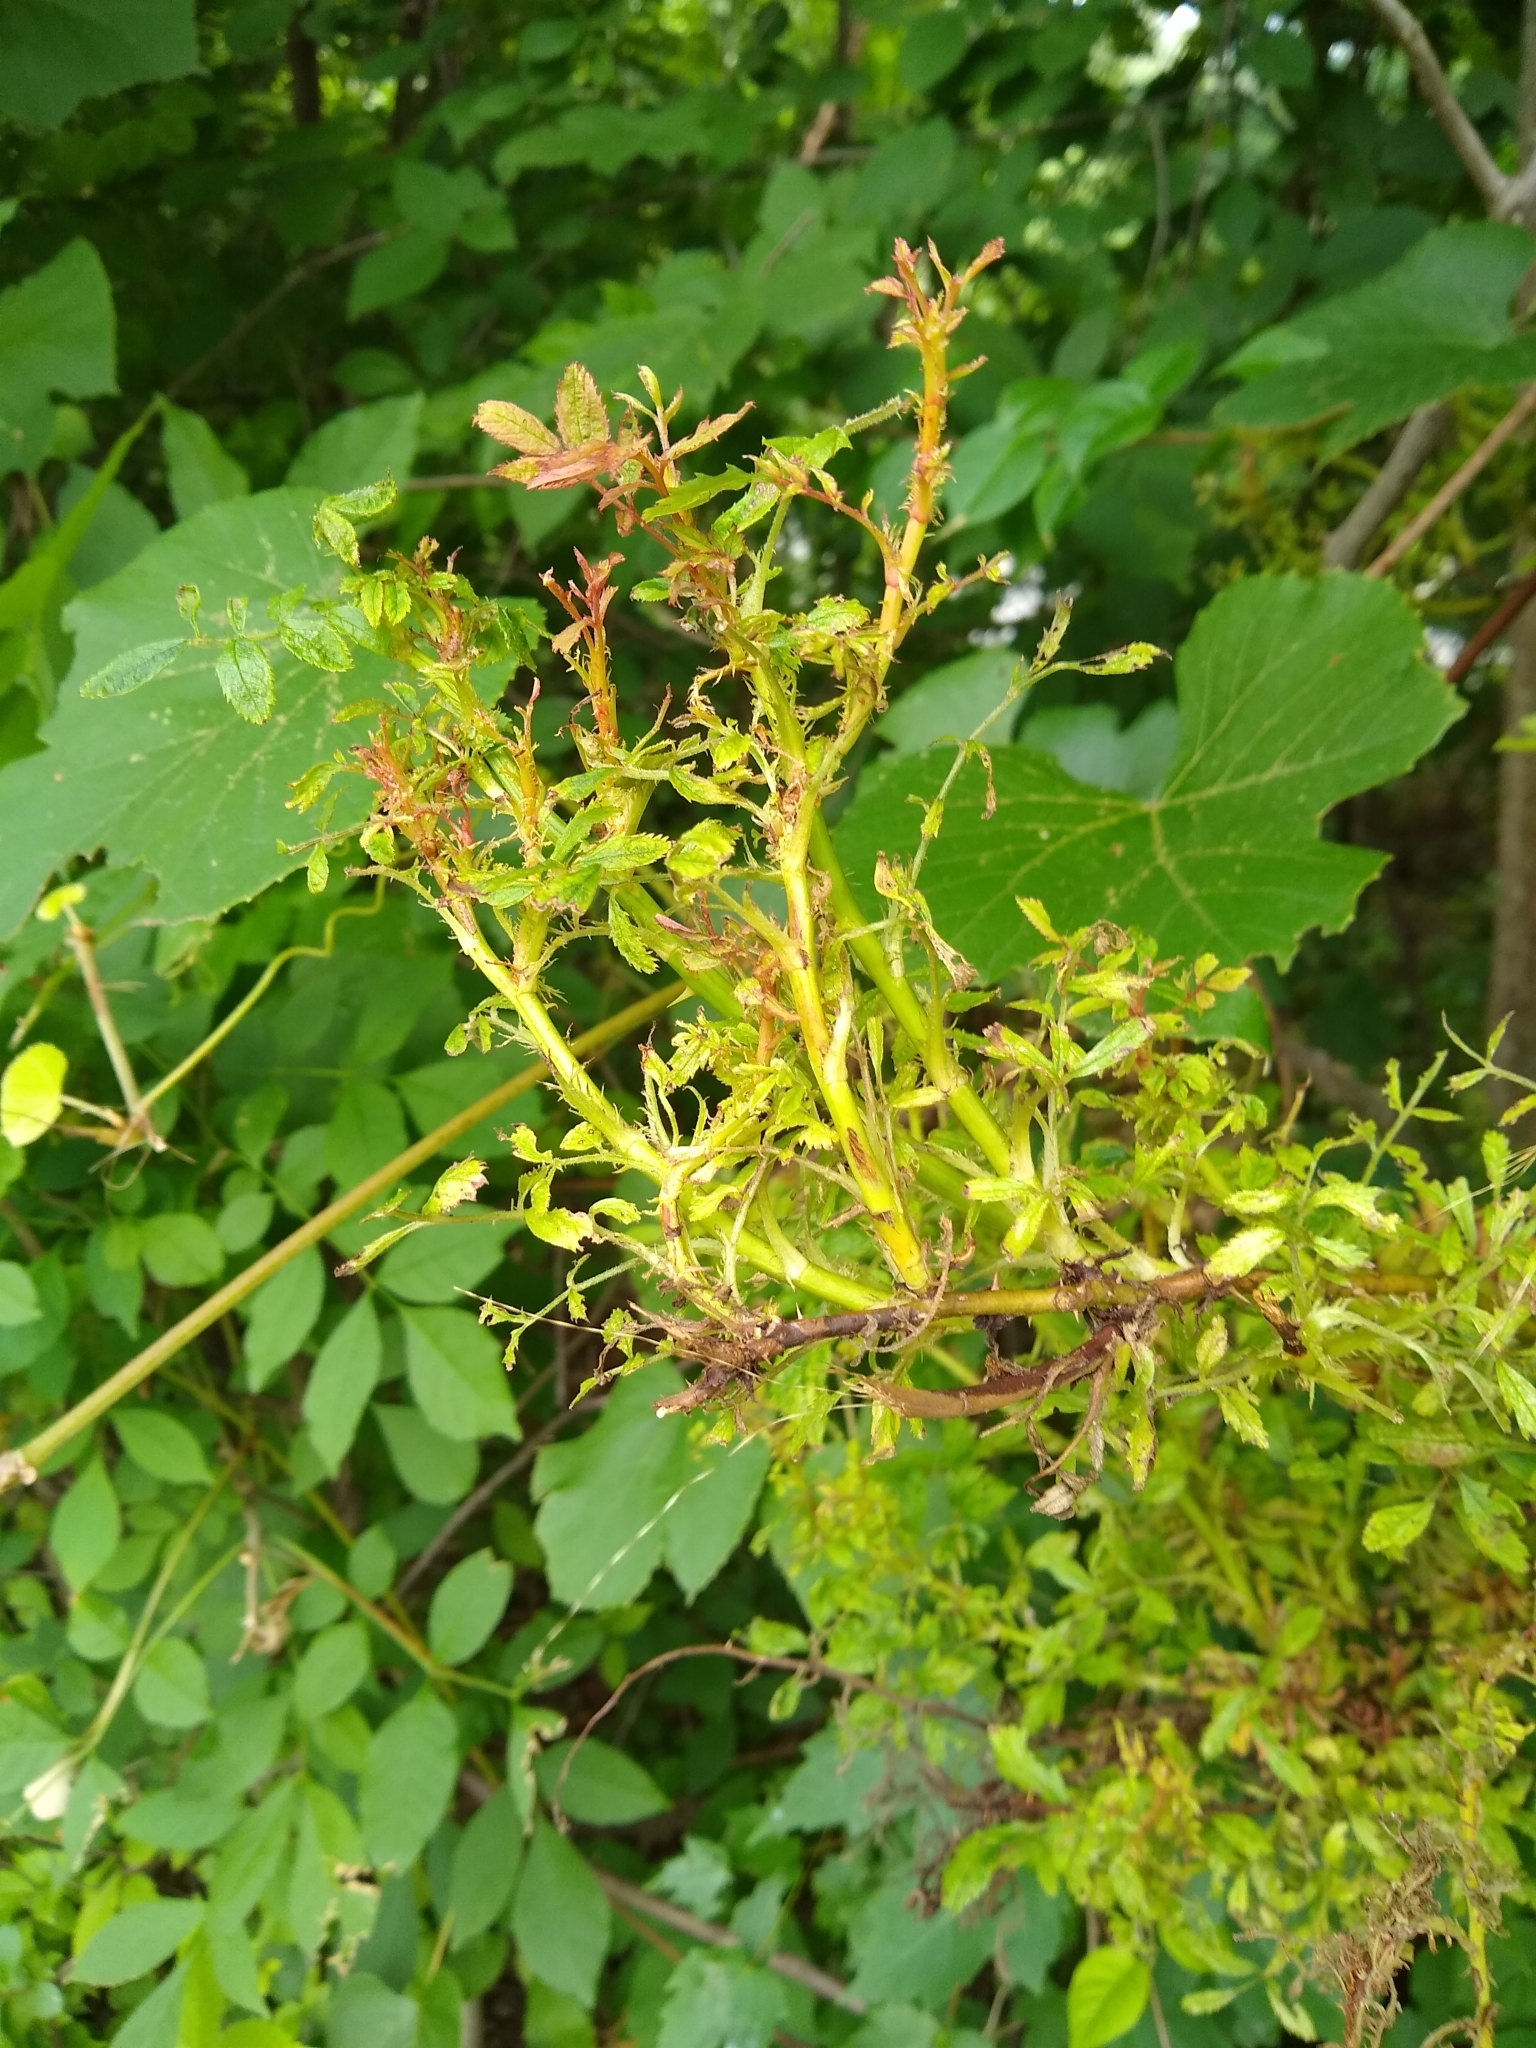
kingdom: Viruses
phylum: Negarnaviricota
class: Ellioviricetes
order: Bunyavirales
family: Fimoviridae
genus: Emaravirus
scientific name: Emaravirus rosae
